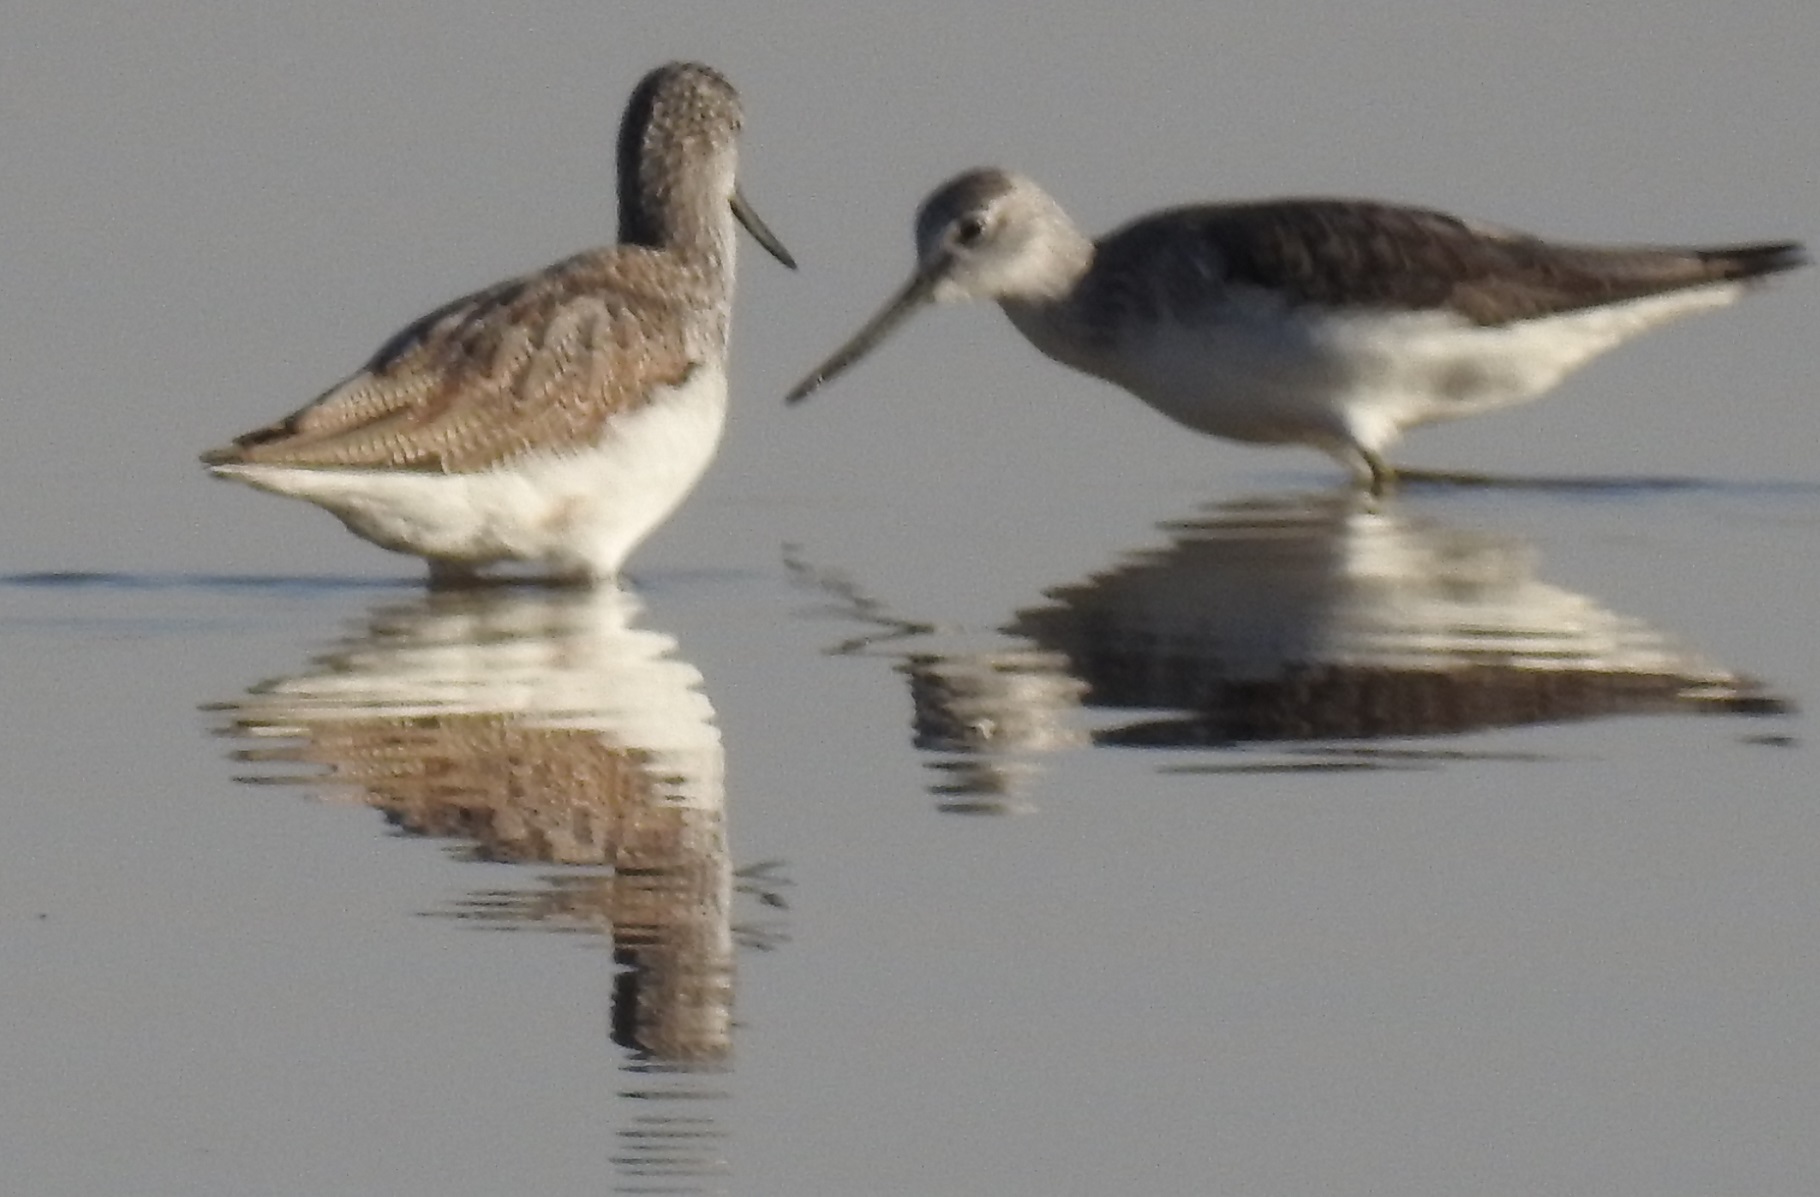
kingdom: Animalia
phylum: Chordata
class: Aves
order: Charadriiformes
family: Scolopacidae
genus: Tringa
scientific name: Tringa nebularia
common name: Common greenshank
